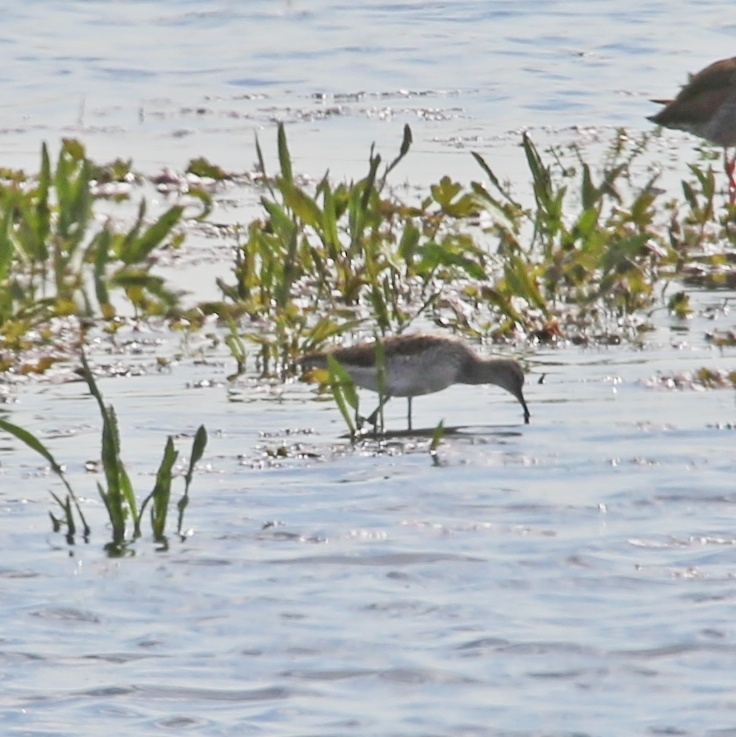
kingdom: Animalia
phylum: Chordata
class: Aves
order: Charadriiformes
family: Scolopacidae
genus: Tringa
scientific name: Tringa glareola
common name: Wood sandpiper
